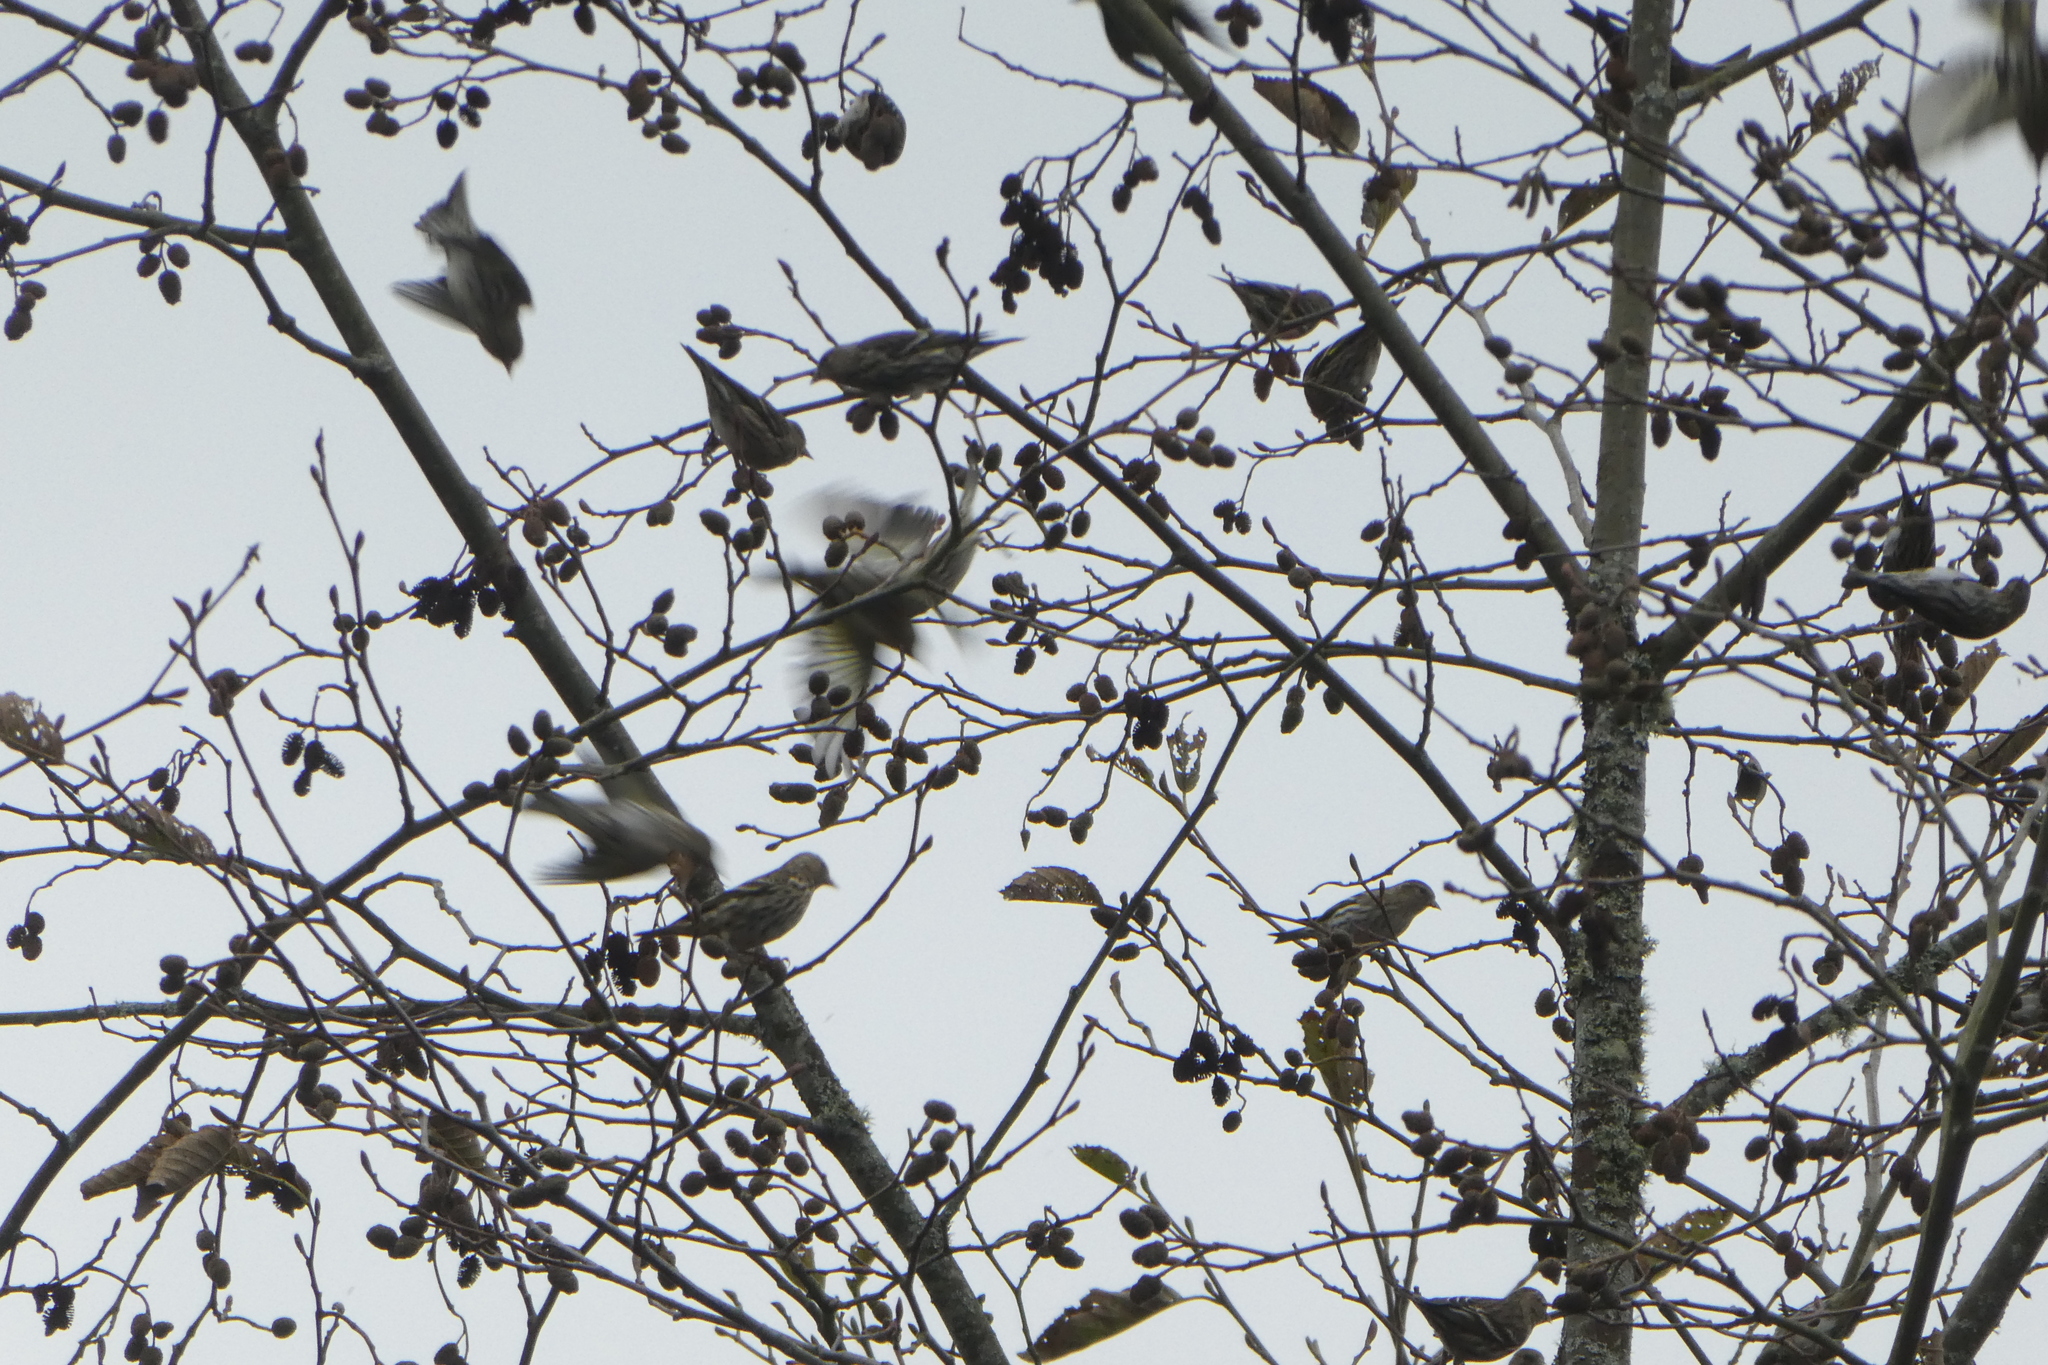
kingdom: Animalia
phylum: Chordata
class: Aves
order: Passeriformes
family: Fringillidae
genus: Spinus
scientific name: Spinus pinus
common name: Pine siskin
